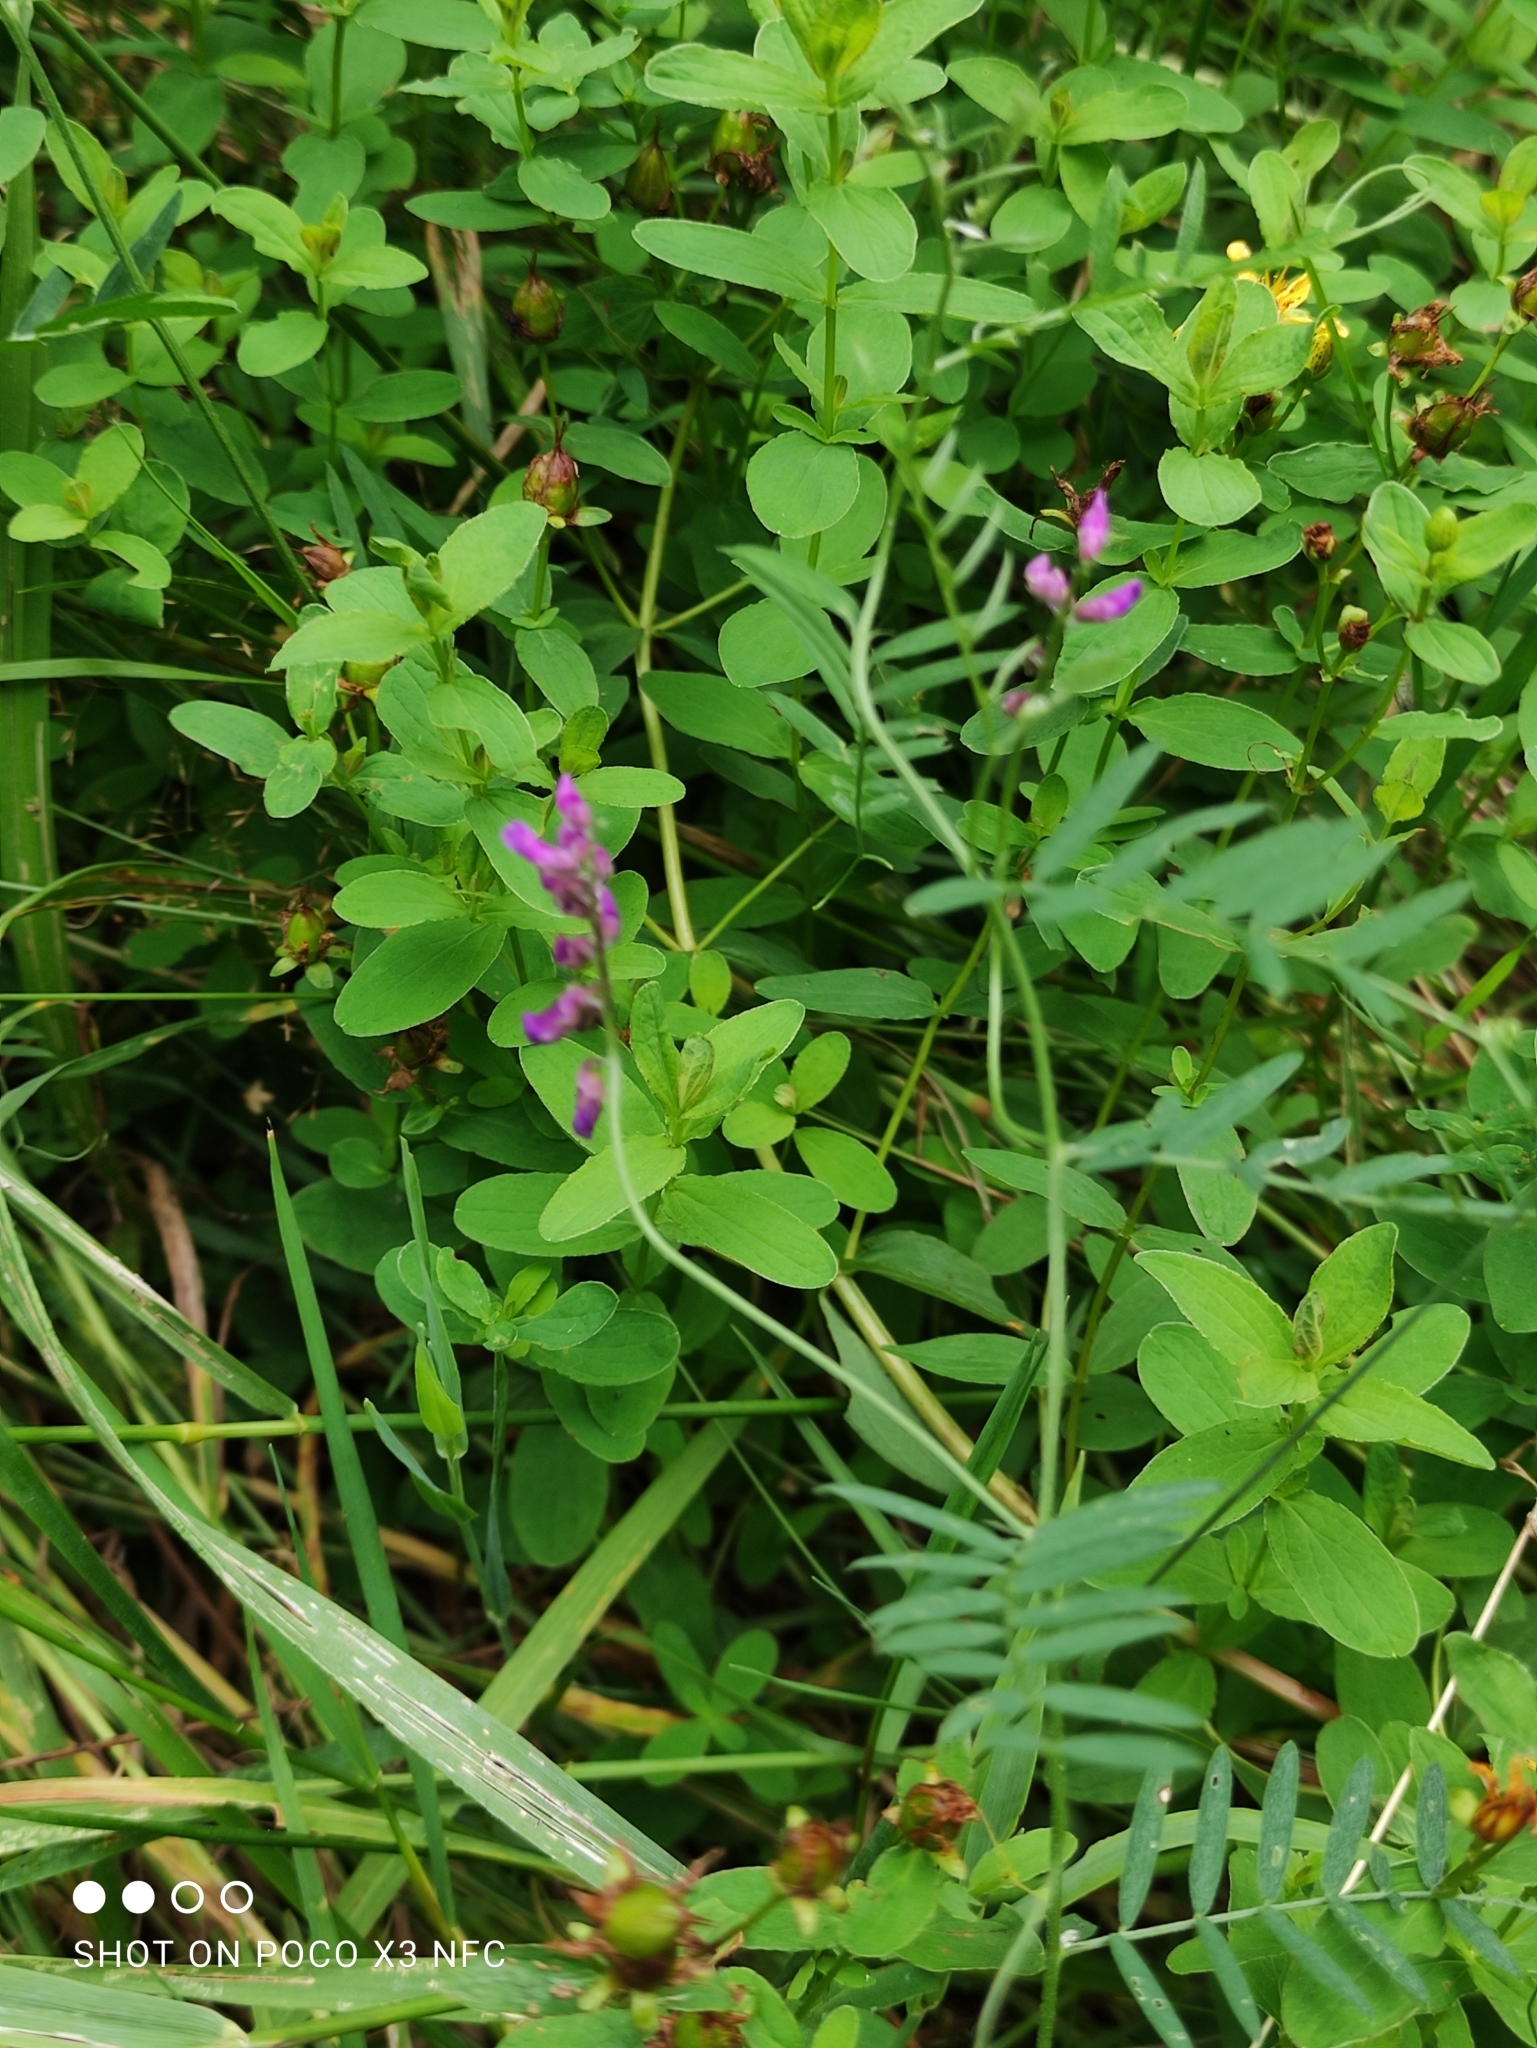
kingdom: Plantae
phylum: Tracheophyta
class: Magnoliopsida
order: Fabales
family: Fabaceae
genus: Vicia
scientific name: Vicia cracca
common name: Bird vetch
